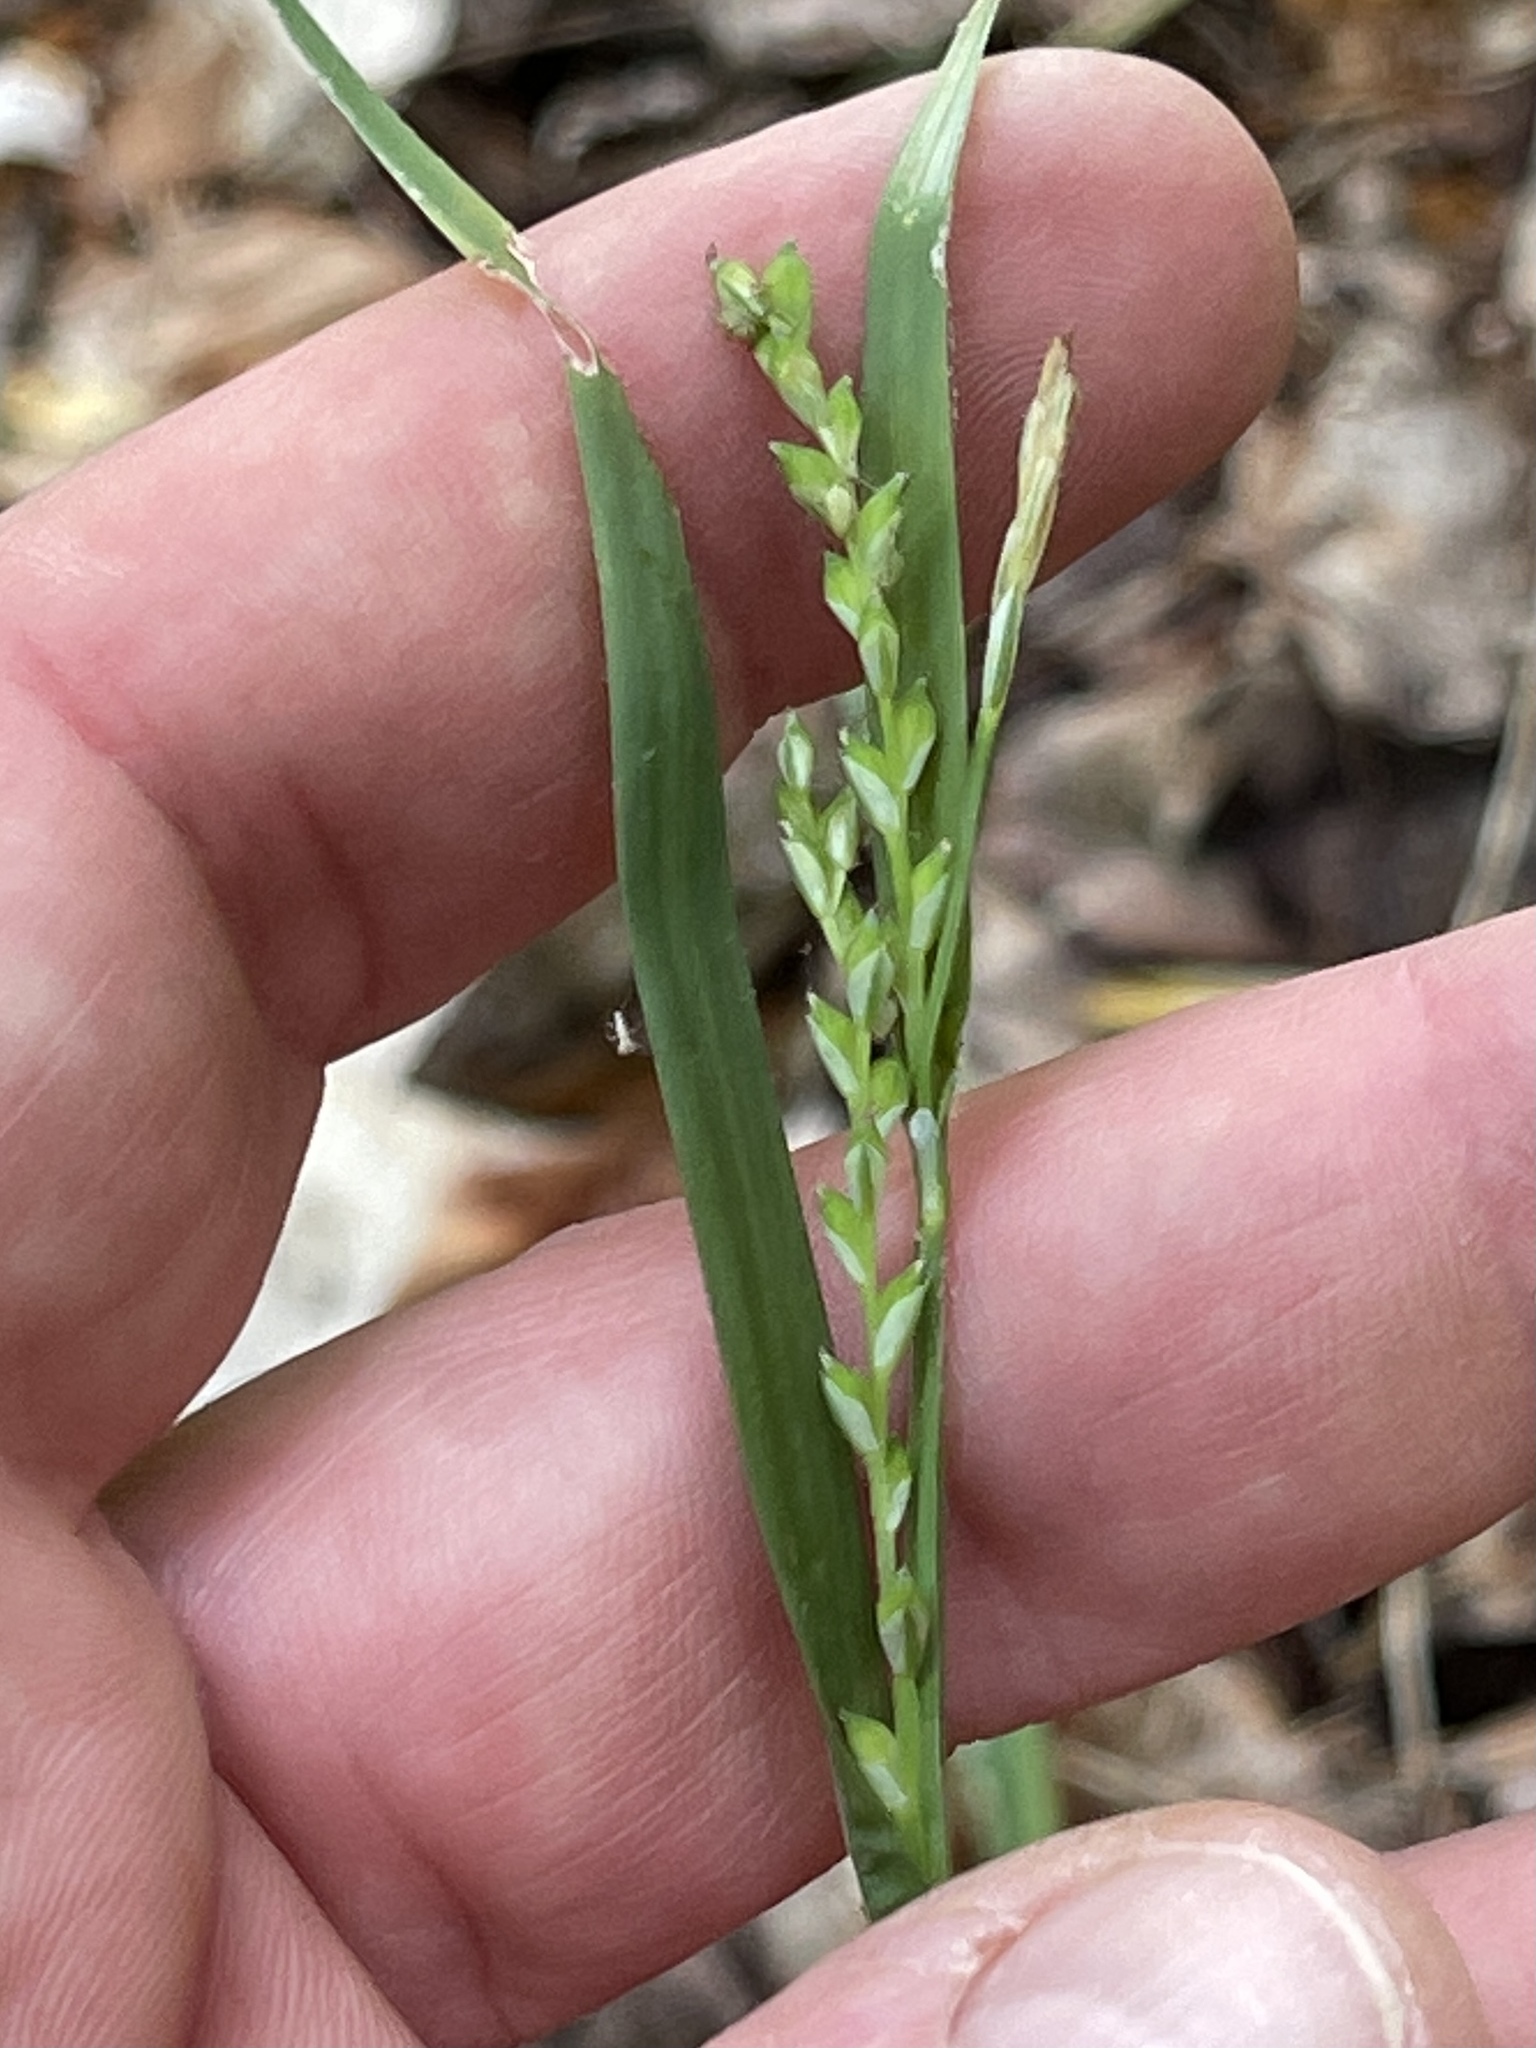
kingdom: Plantae
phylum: Tracheophyta
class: Liliopsida
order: Poales
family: Cyperaceae
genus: Carex
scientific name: Carex laxiflora
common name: Beech wood sedge
